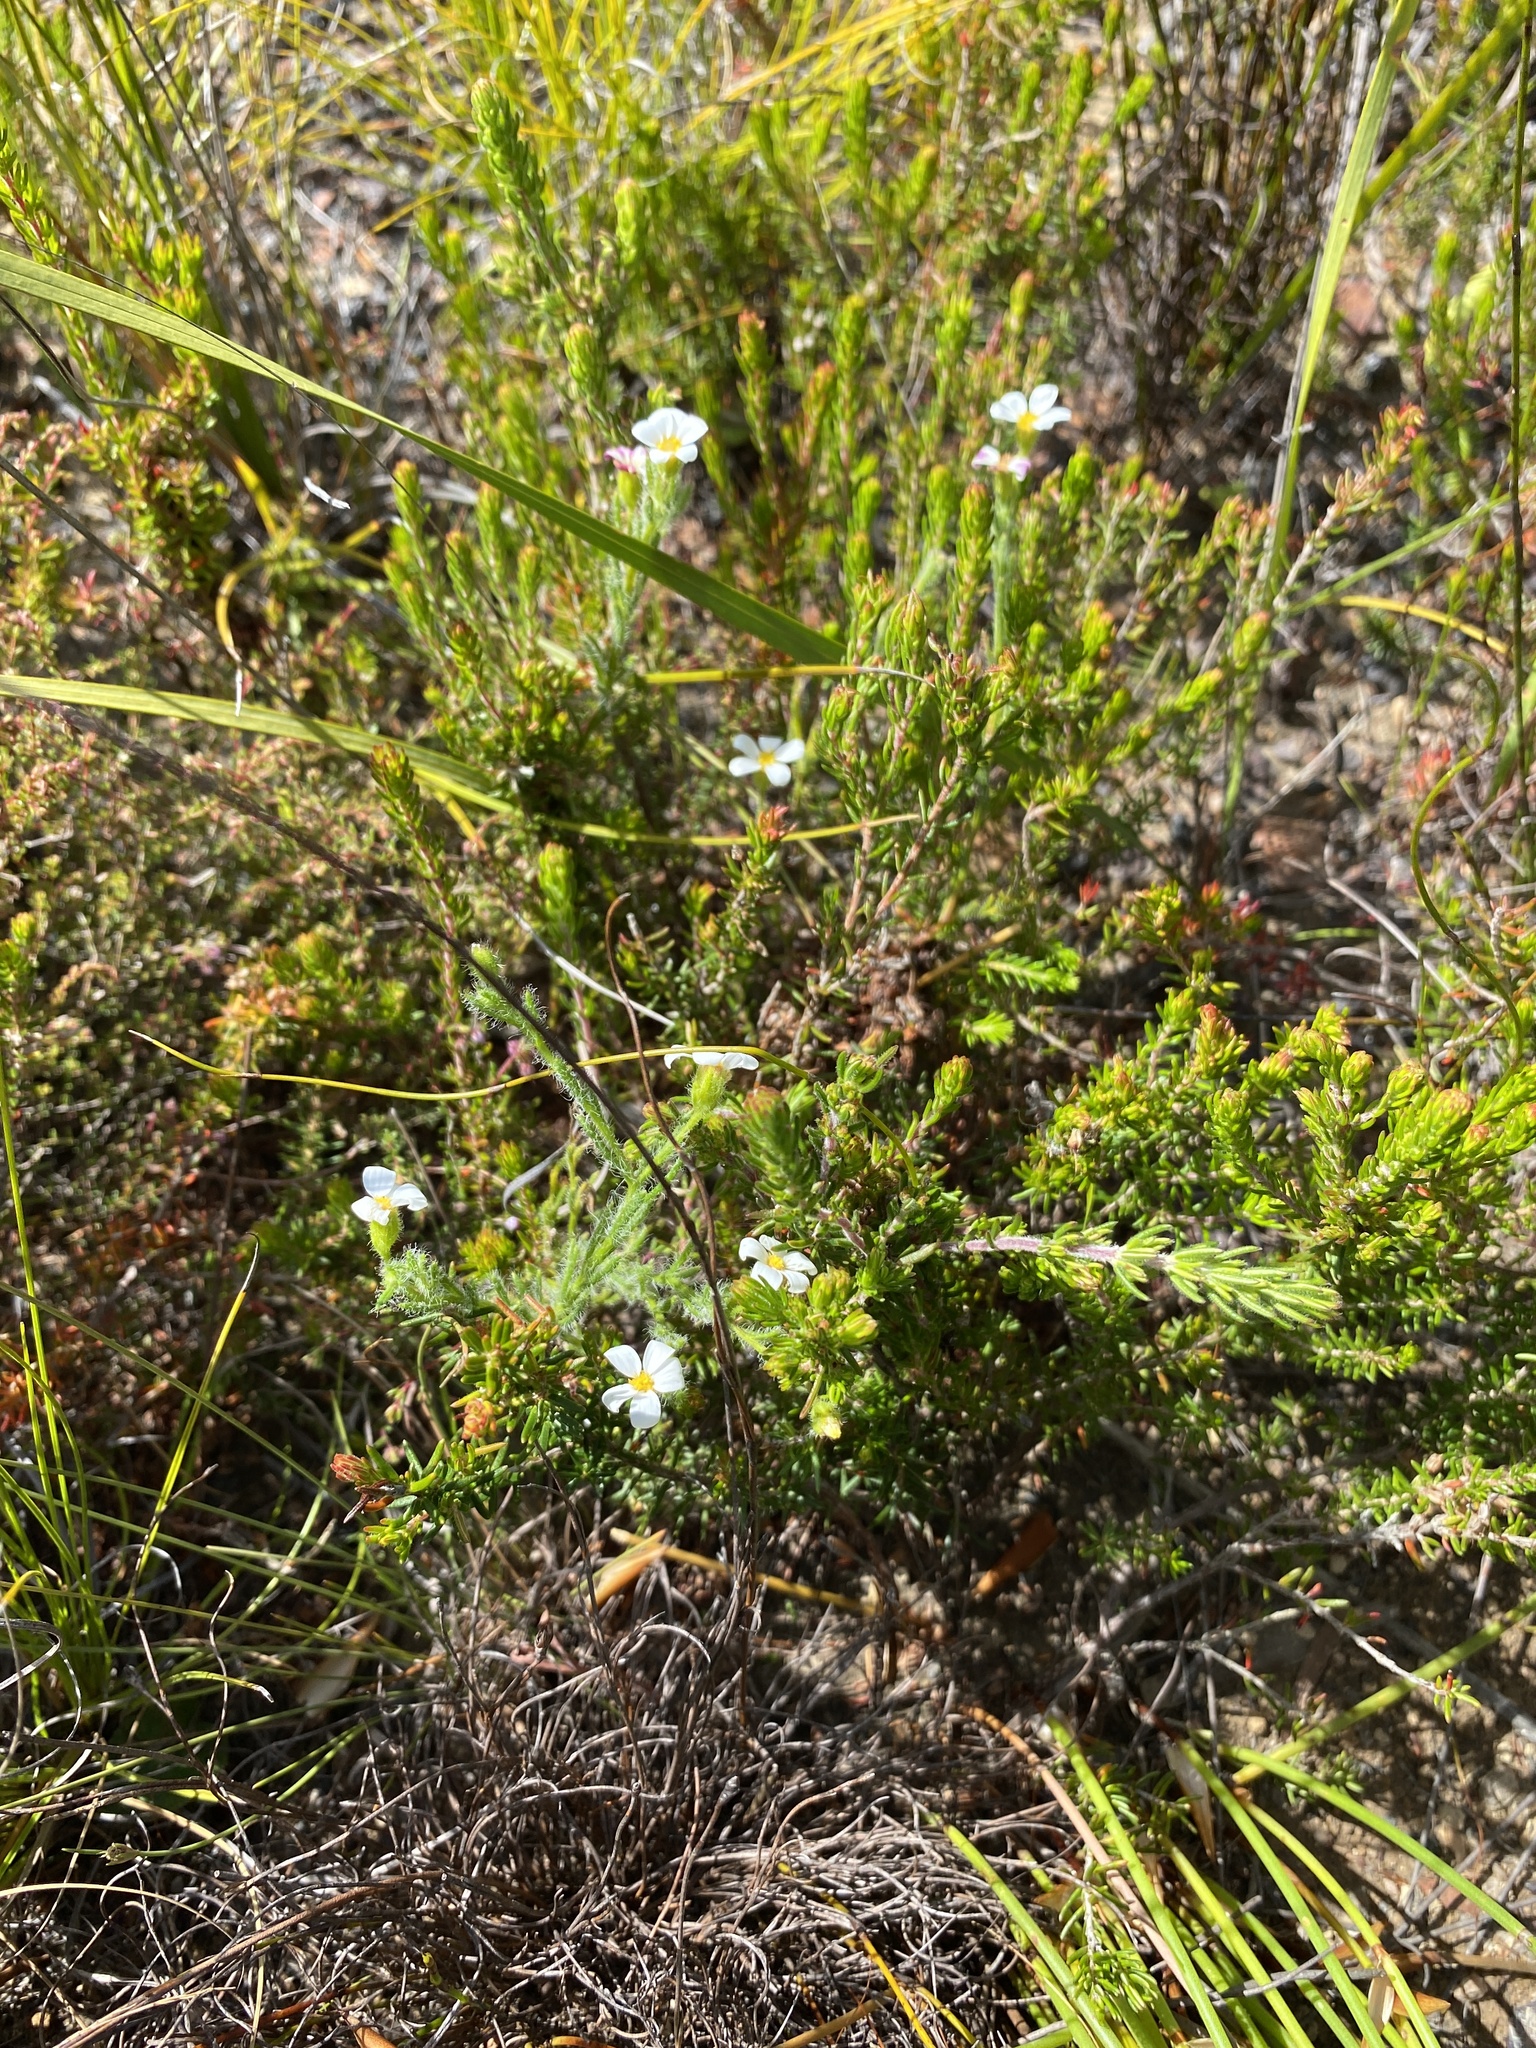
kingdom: Plantae
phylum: Tracheophyta
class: Magnoliopsida
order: Asterales
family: Asteraceae
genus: Zyrphelis
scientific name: Zyrphelis foliosa
